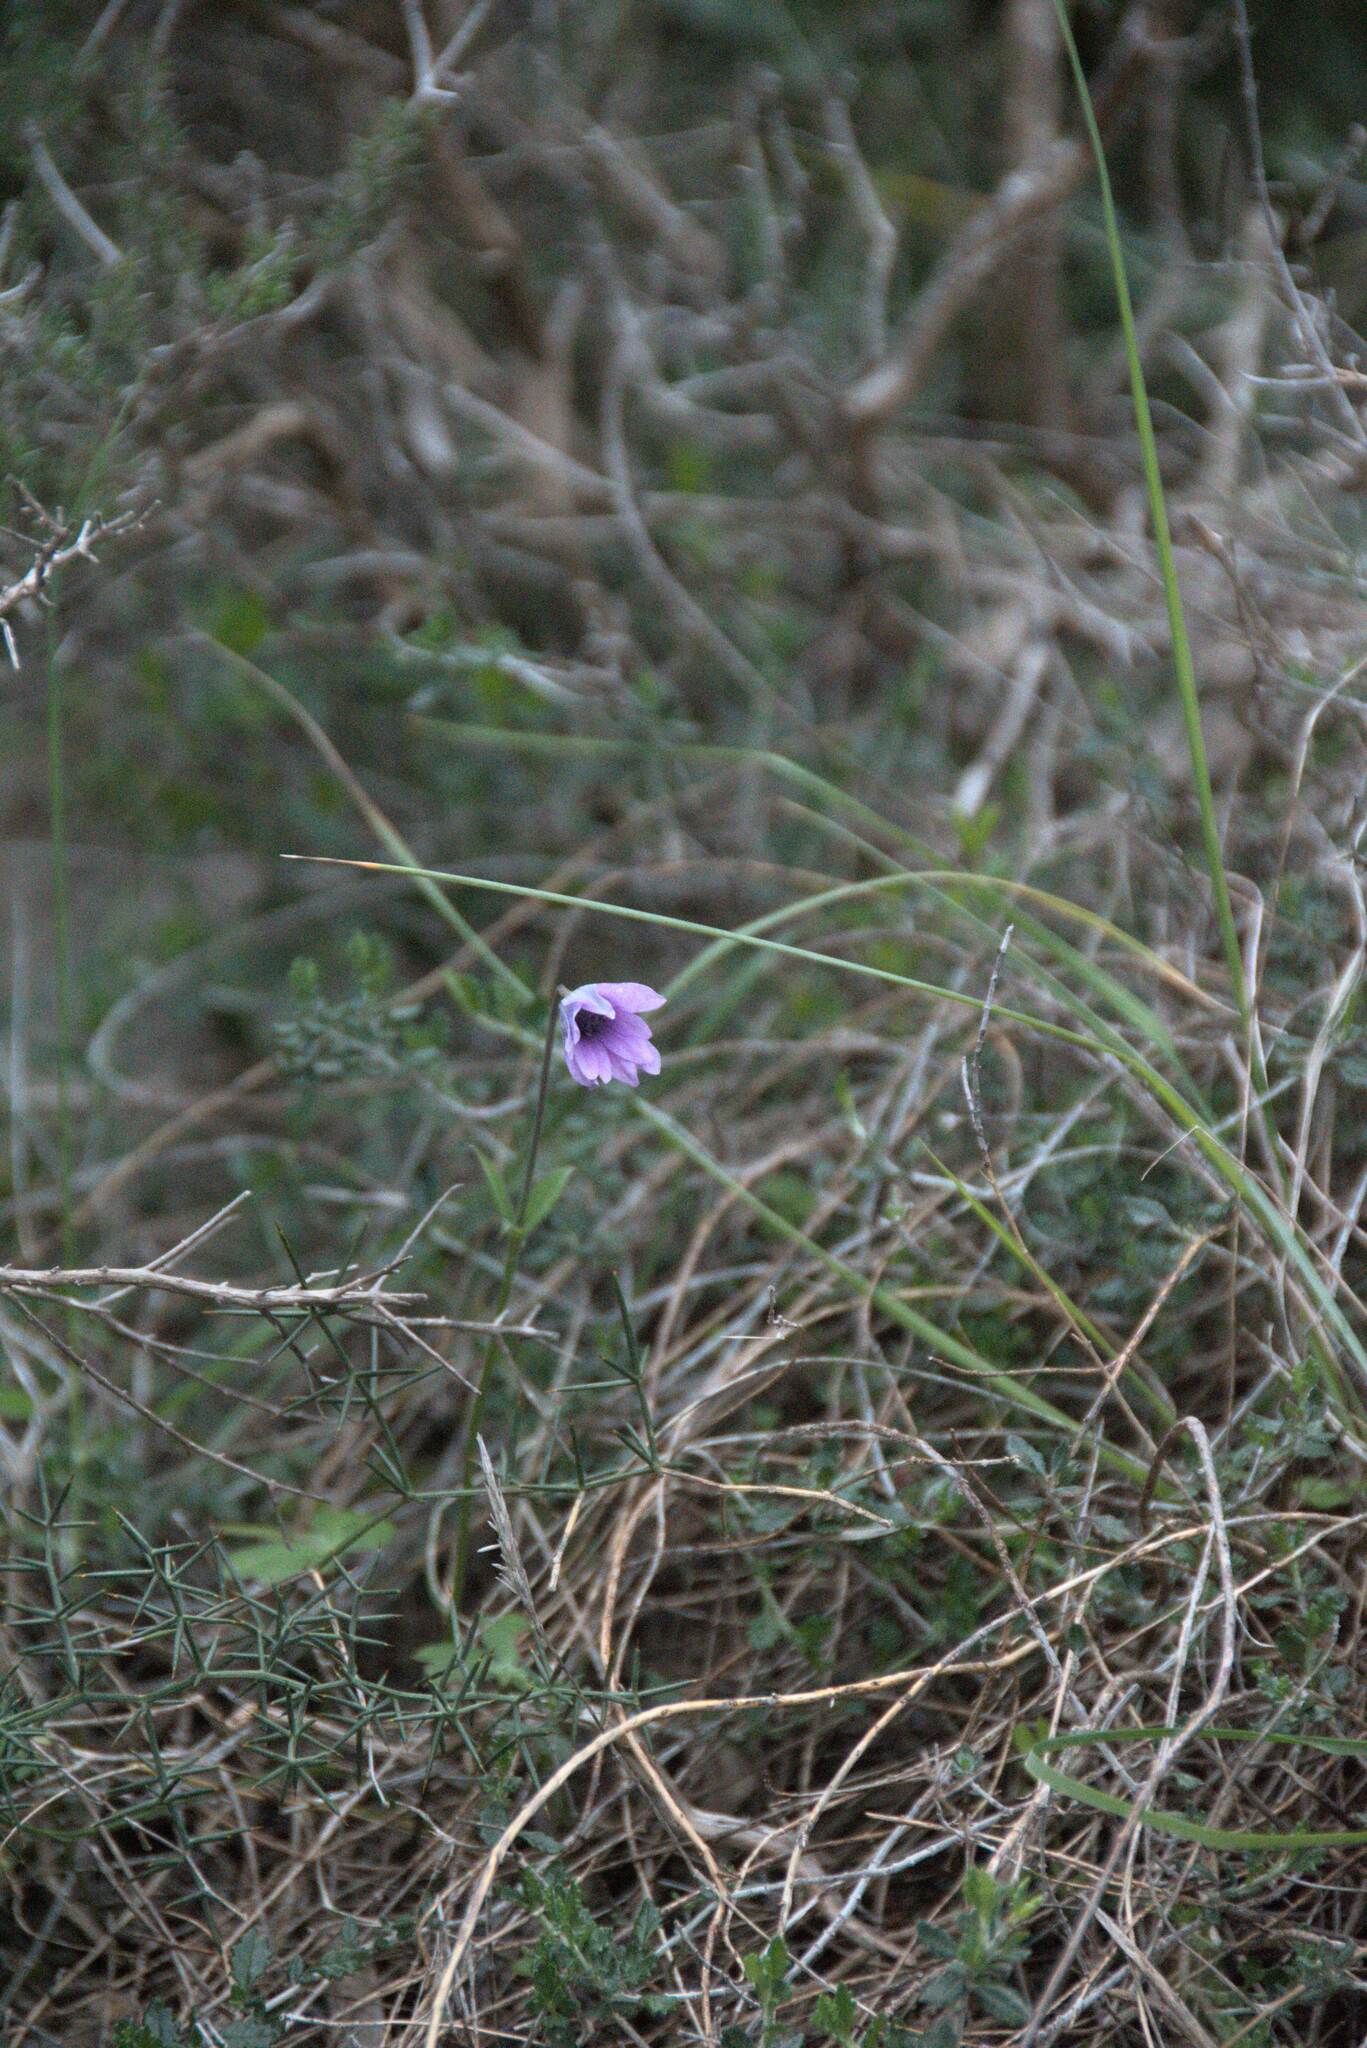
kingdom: Plantae
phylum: Tracheophyta
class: Magnoliopsida
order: Ranunculales
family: Ranunculaceae
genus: Anemone
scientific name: Anemone hortensis
